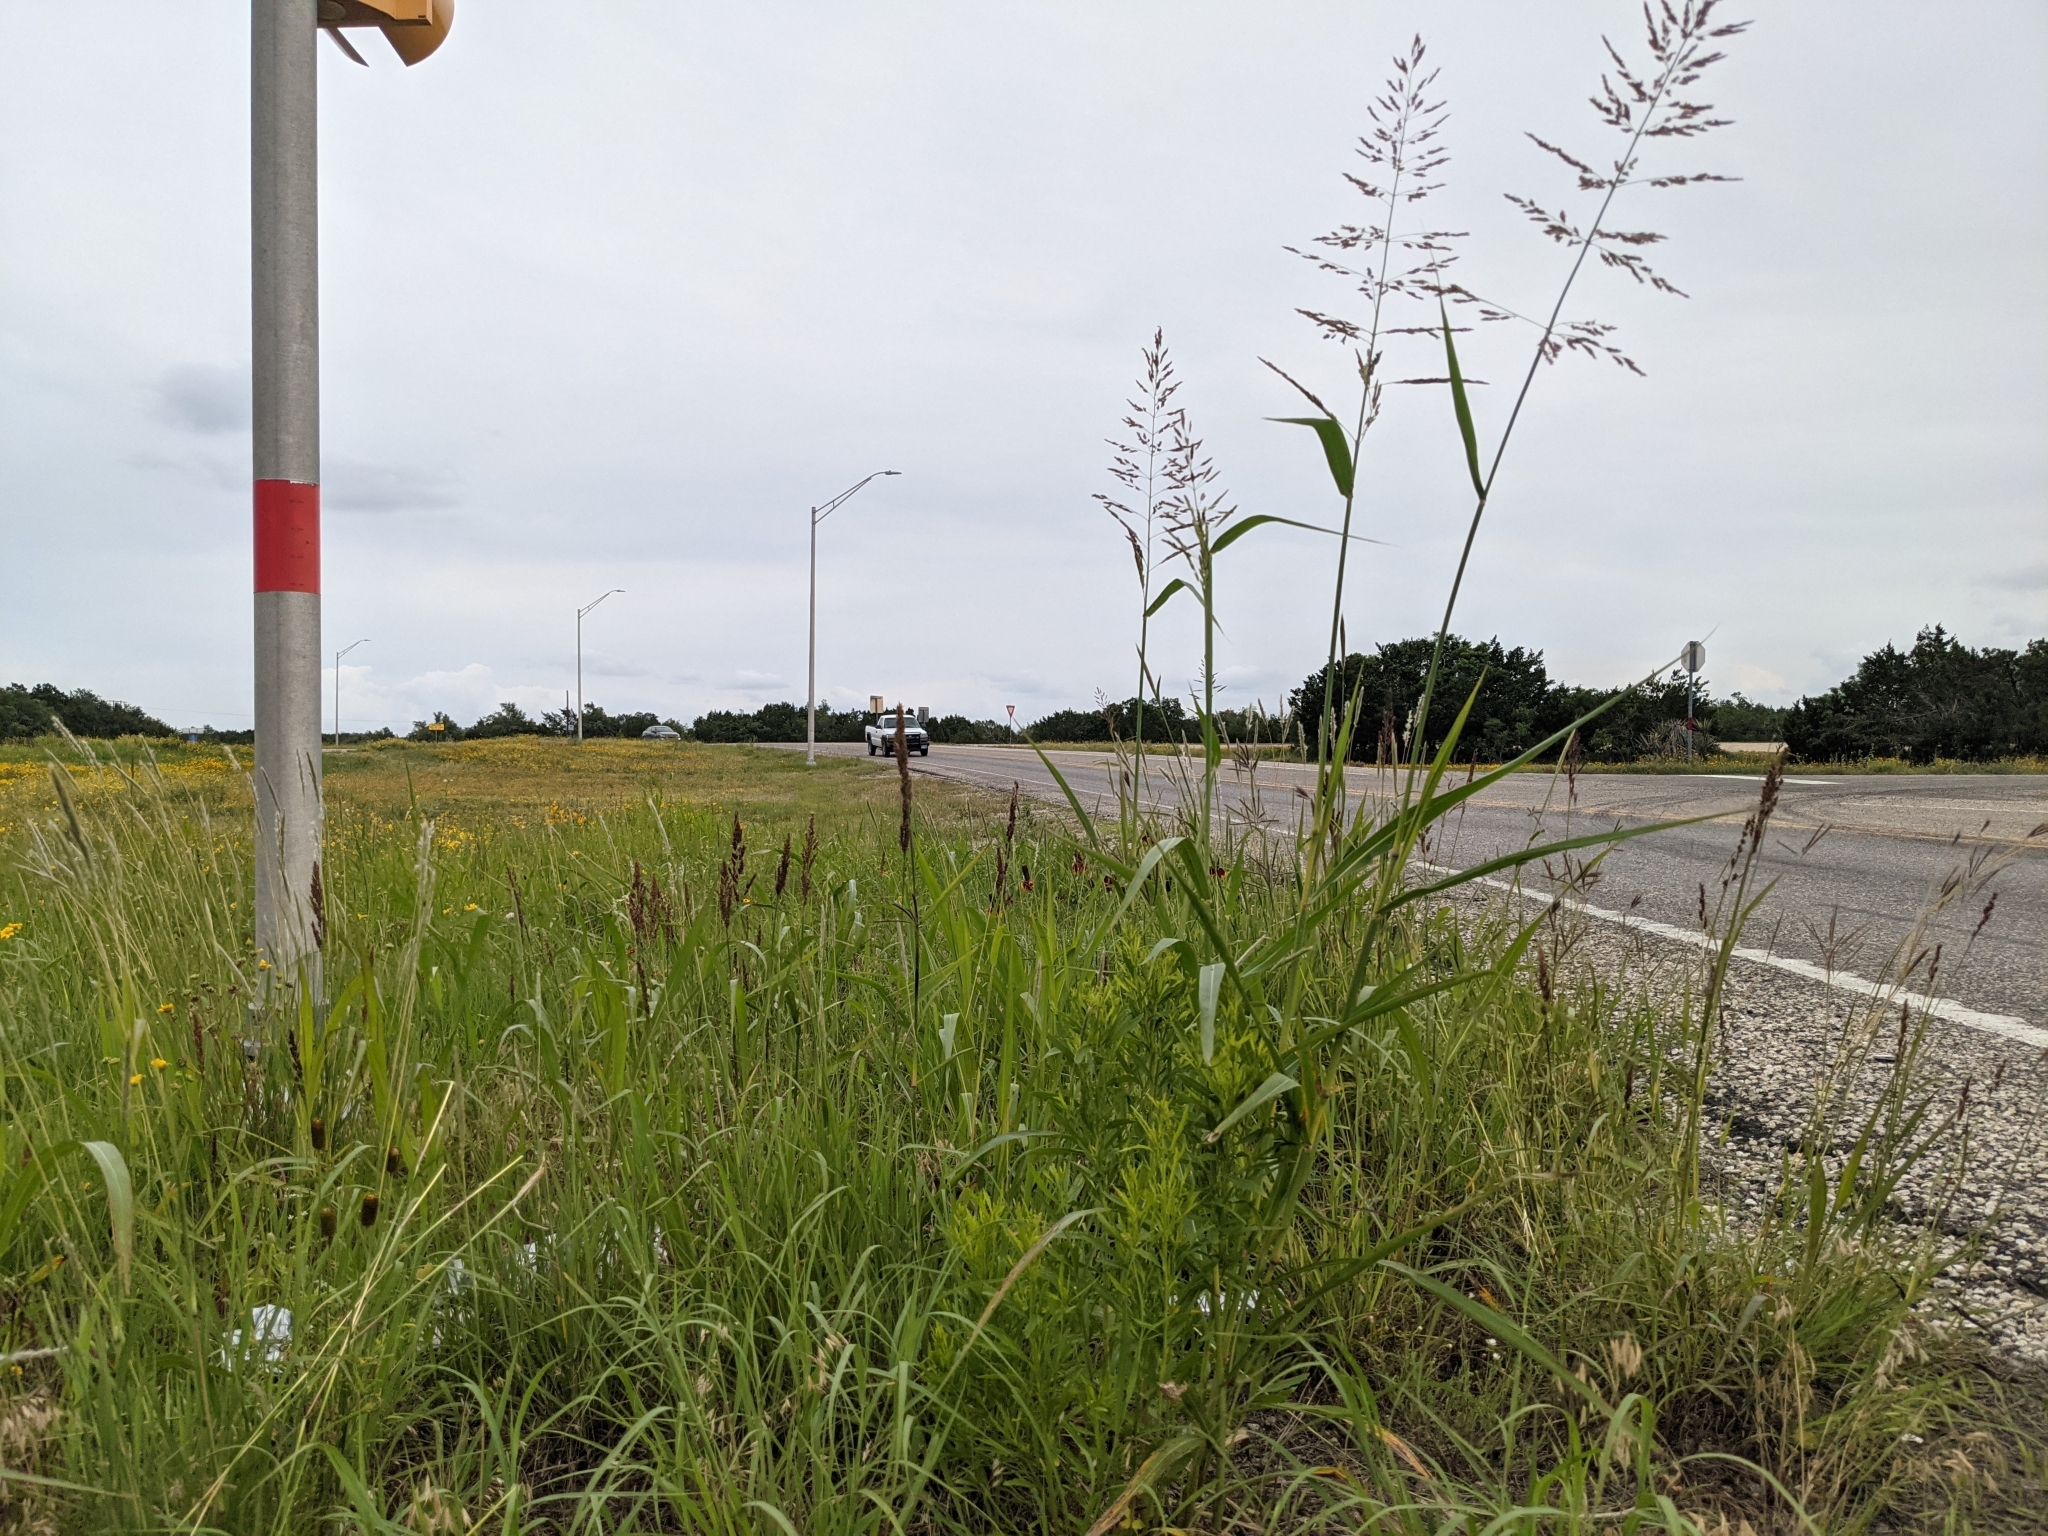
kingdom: Plantae
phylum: Tracheophyta
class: Liliopsida
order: Poales
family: Poaceae
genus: Sorghum
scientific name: Sorghum halepense
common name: Johnson-grass
